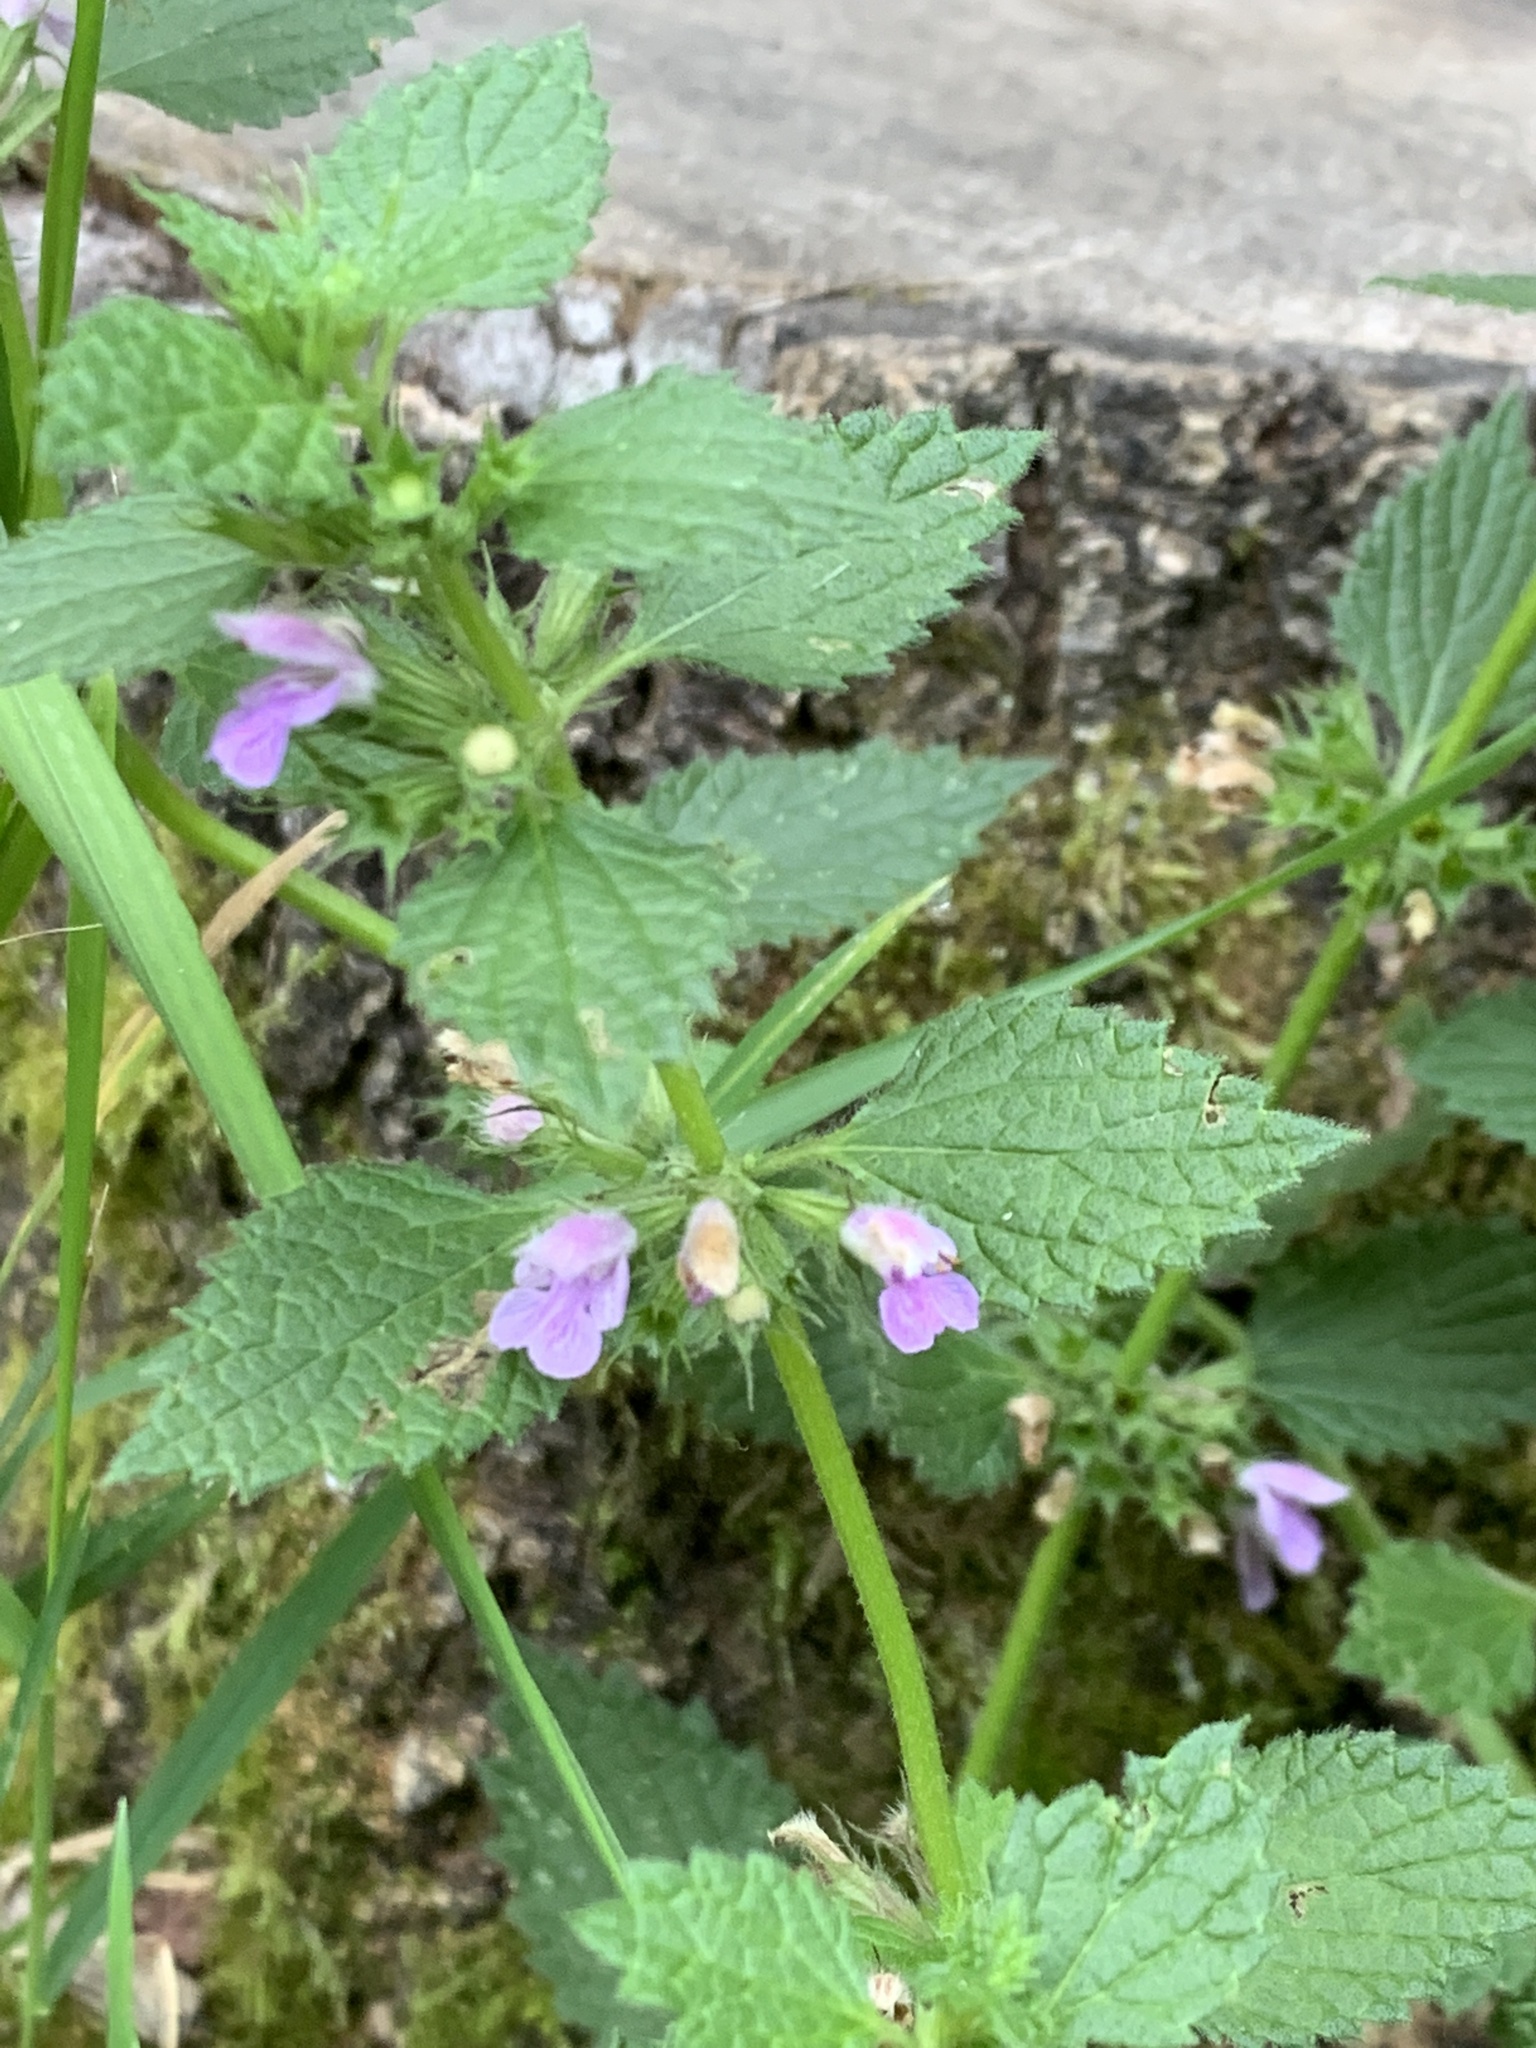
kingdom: Plantae
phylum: Tracheophyta
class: Magnoliopsida
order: Lamiales
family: Lamiaceae
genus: Ballota
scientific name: Ballota nigra
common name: Black horehound
